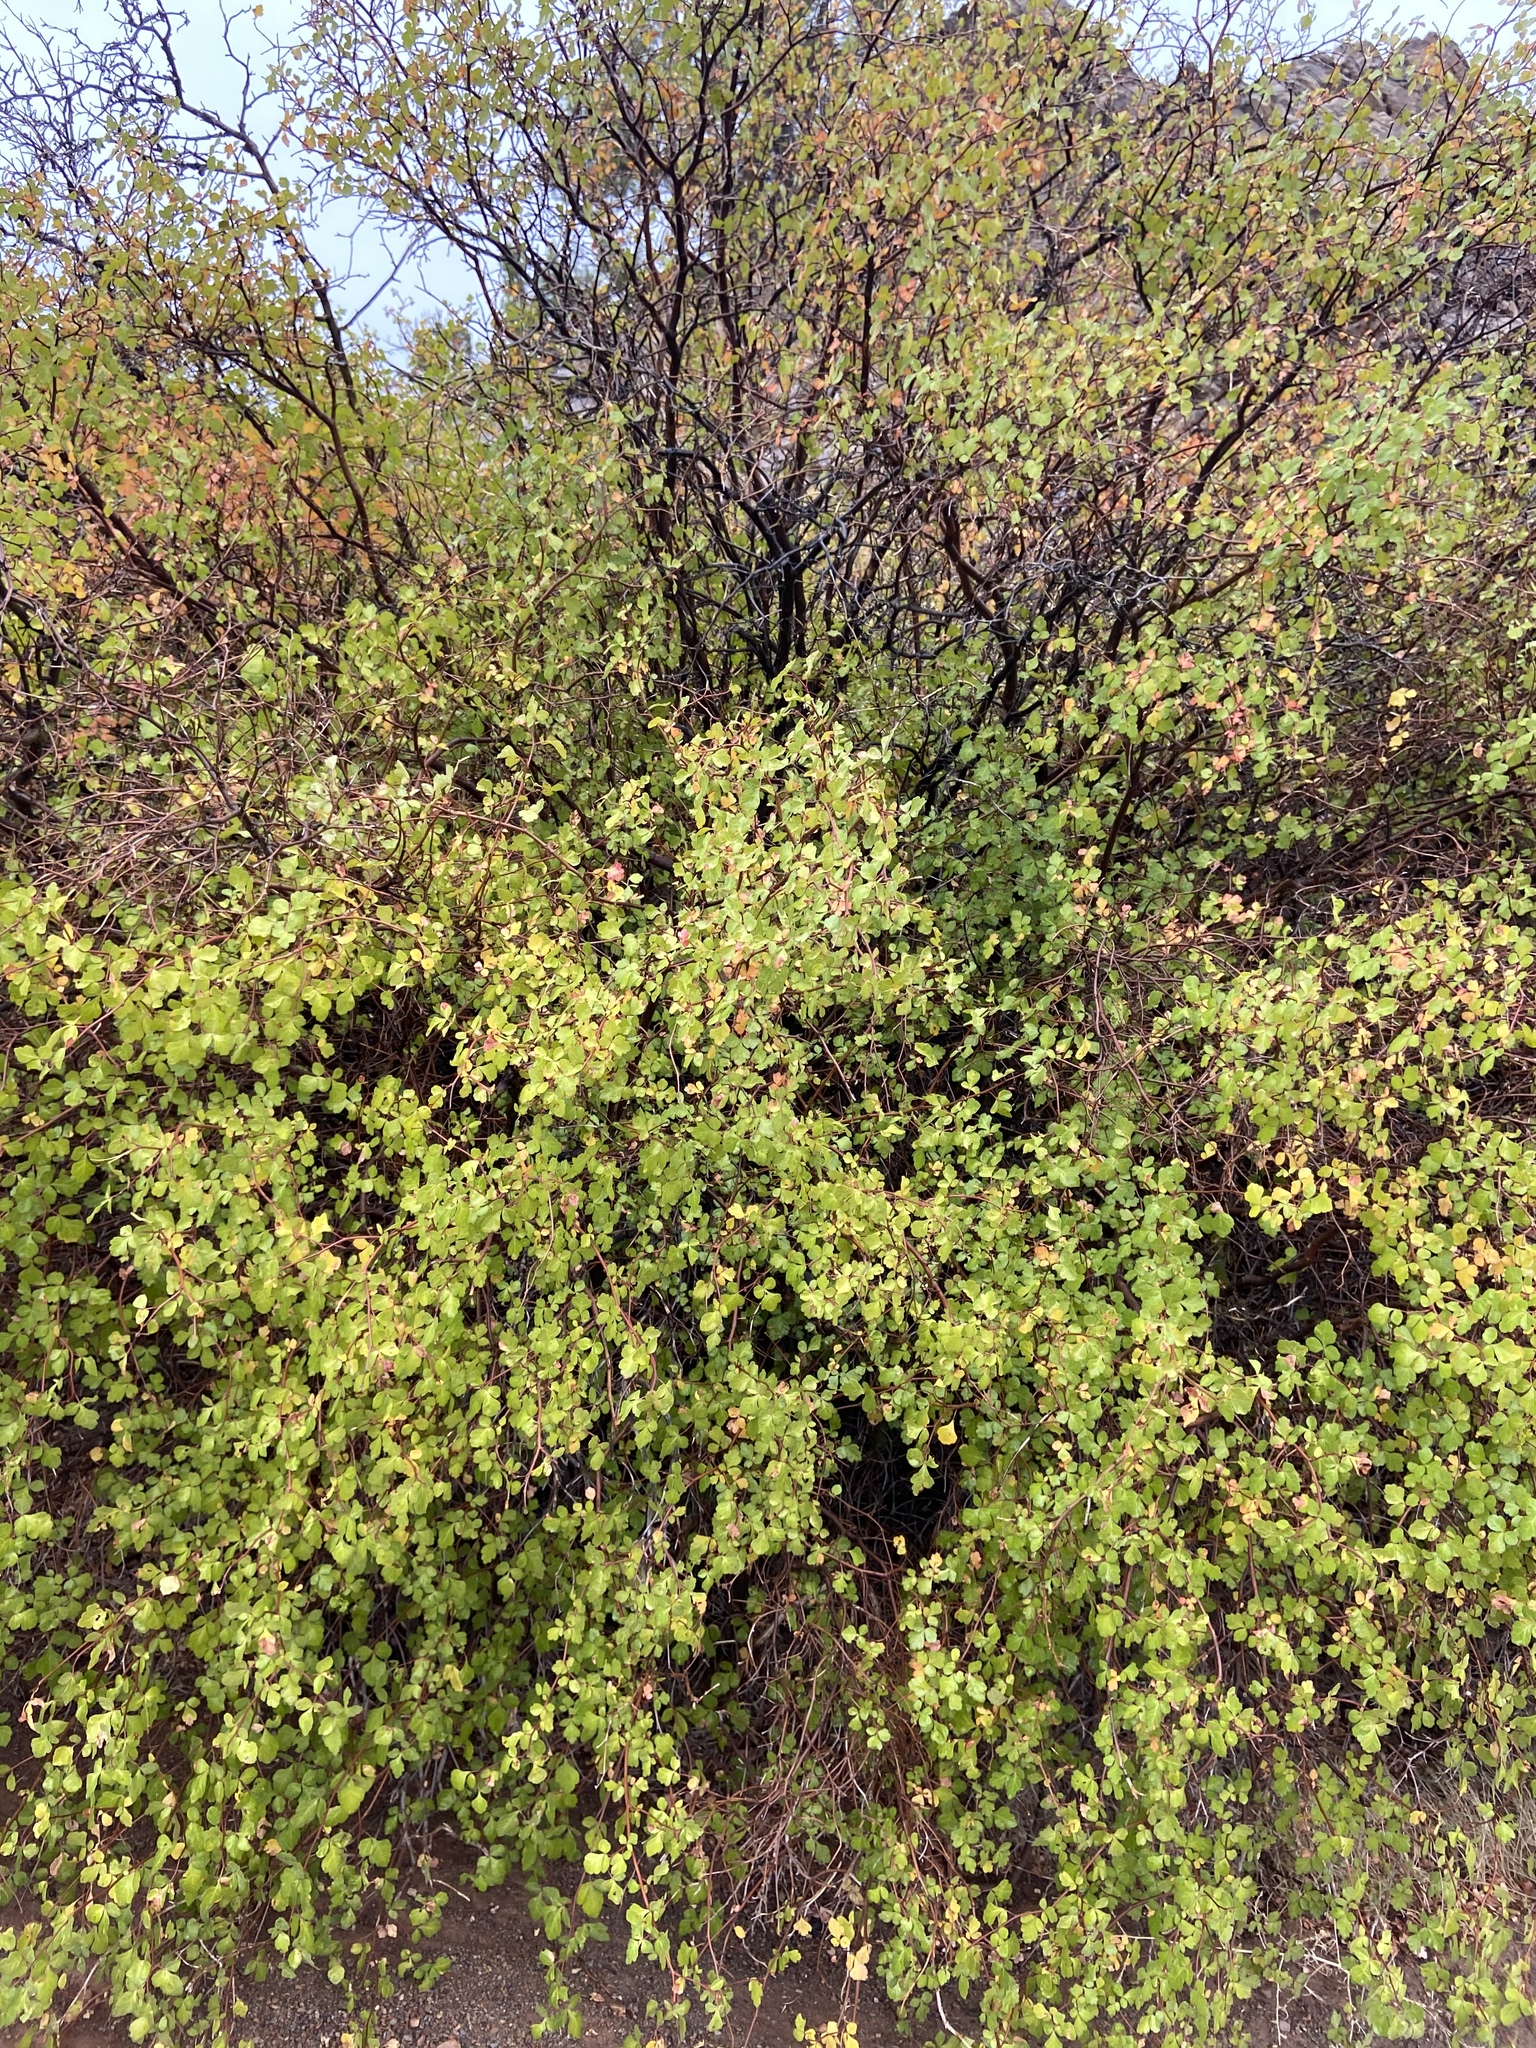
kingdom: Plantae
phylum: Tracheophyta
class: Magnoliopsida
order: Sapindales
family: Anacardiaceae
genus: Rhus
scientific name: Rhus aromatica
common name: Aromatic sumac
